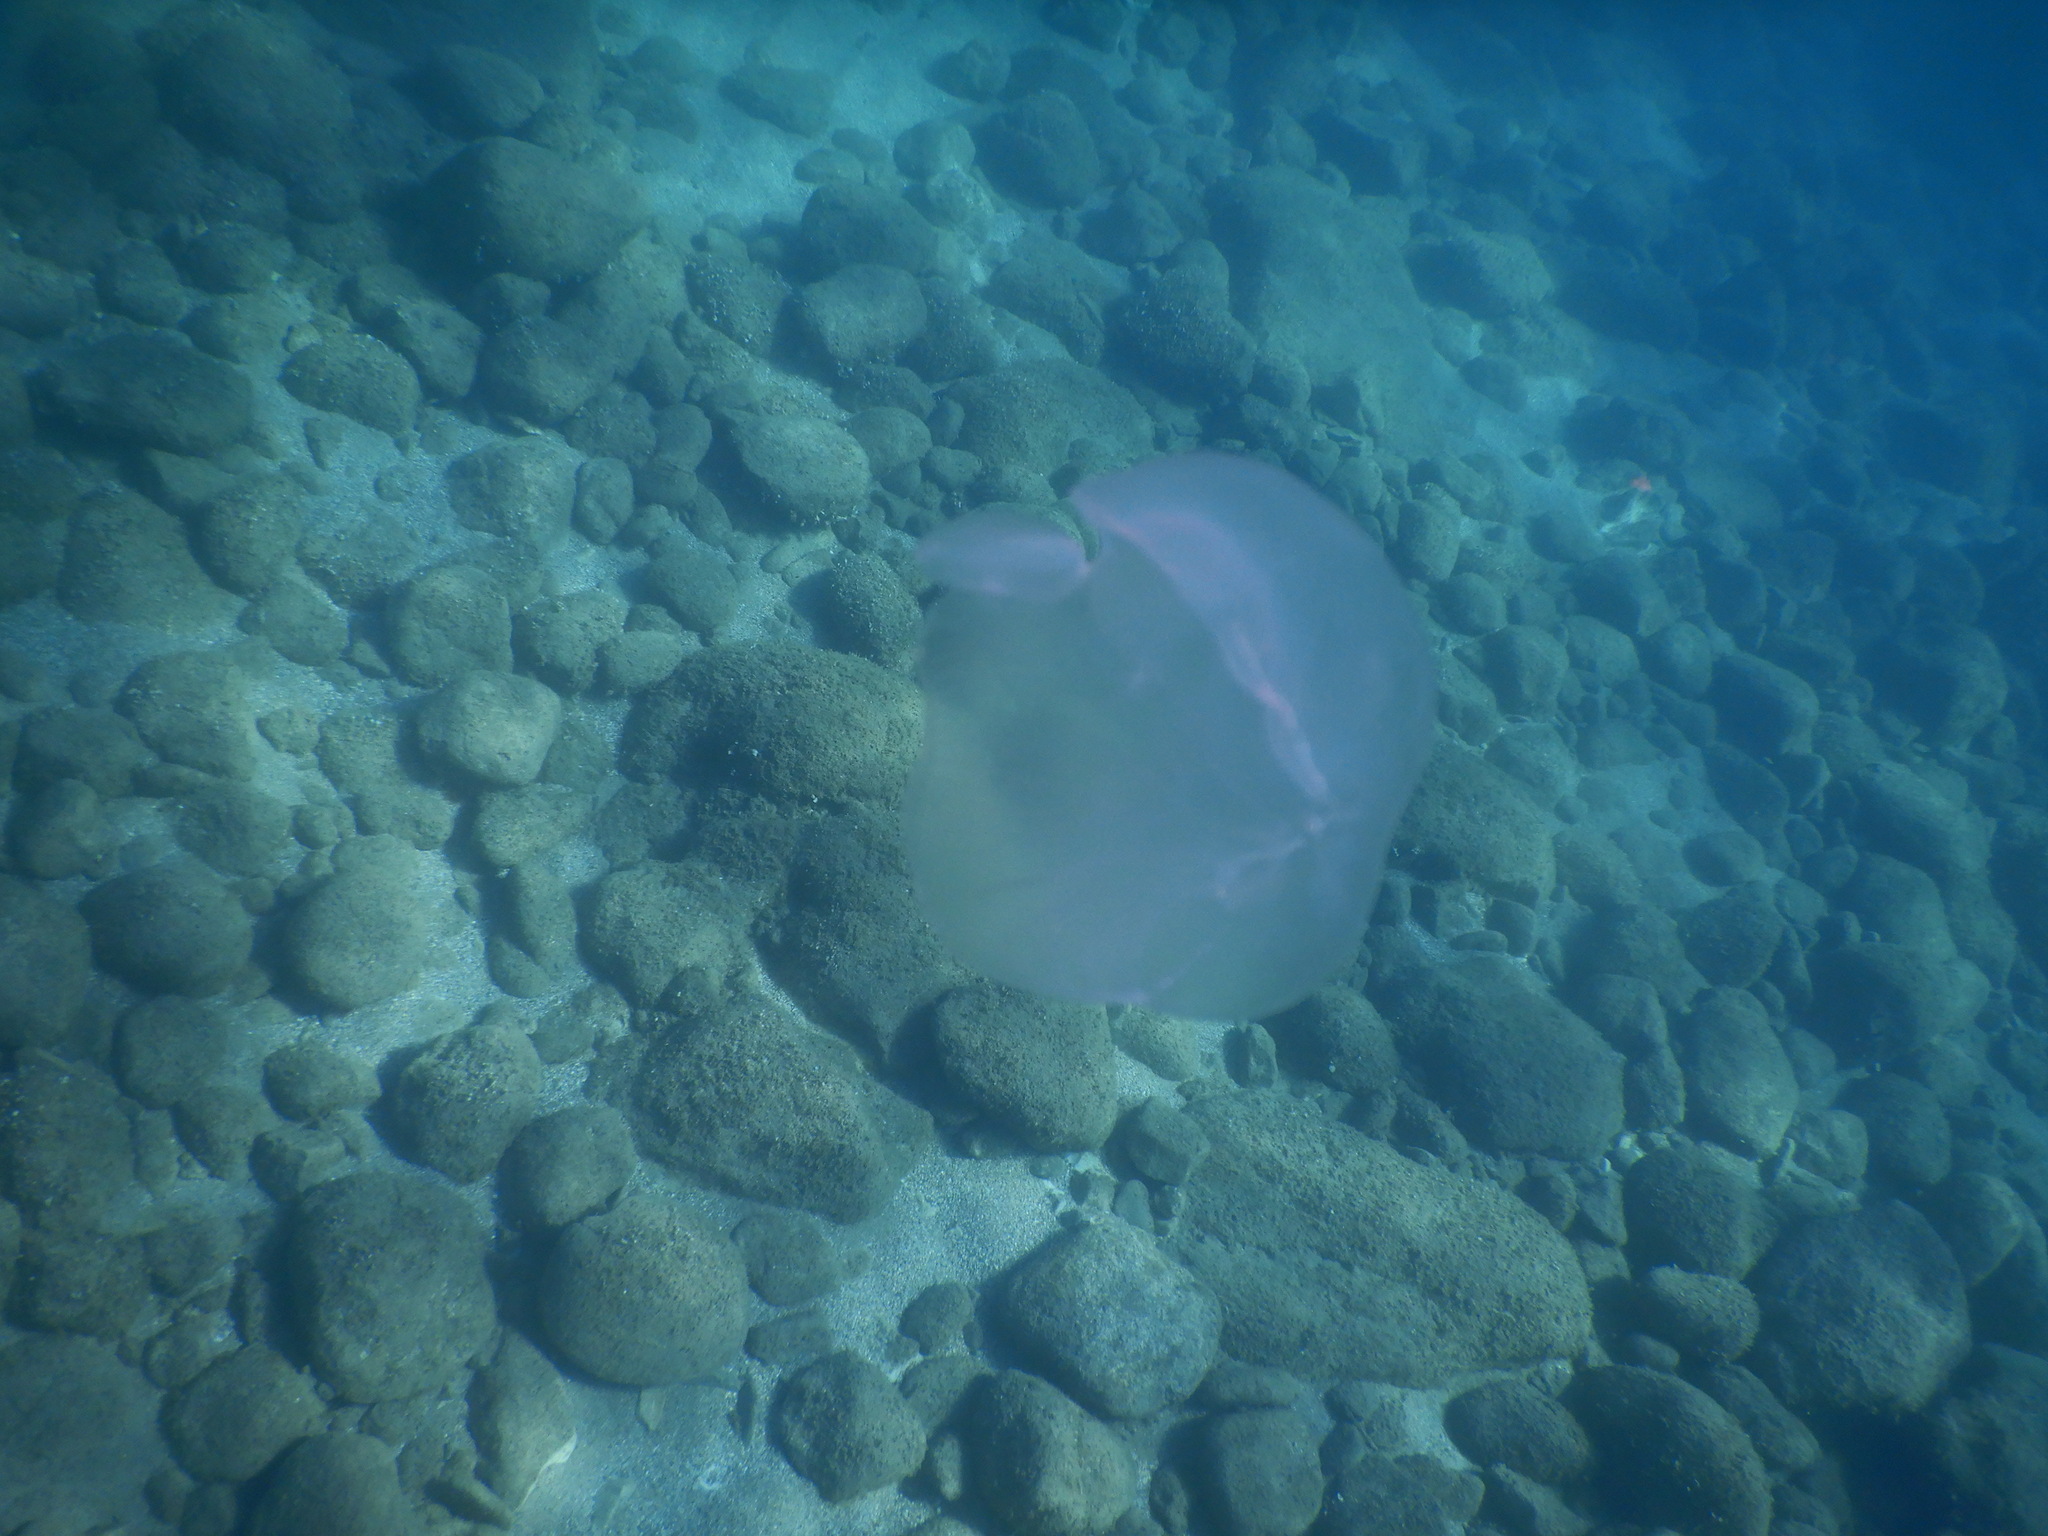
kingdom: Animalia
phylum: Cnidaria
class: Scyphozoa
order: Semaeostomeae
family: Ulmaridae
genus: Aurelia
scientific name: Aurelia aurita
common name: Moon jellyfish
